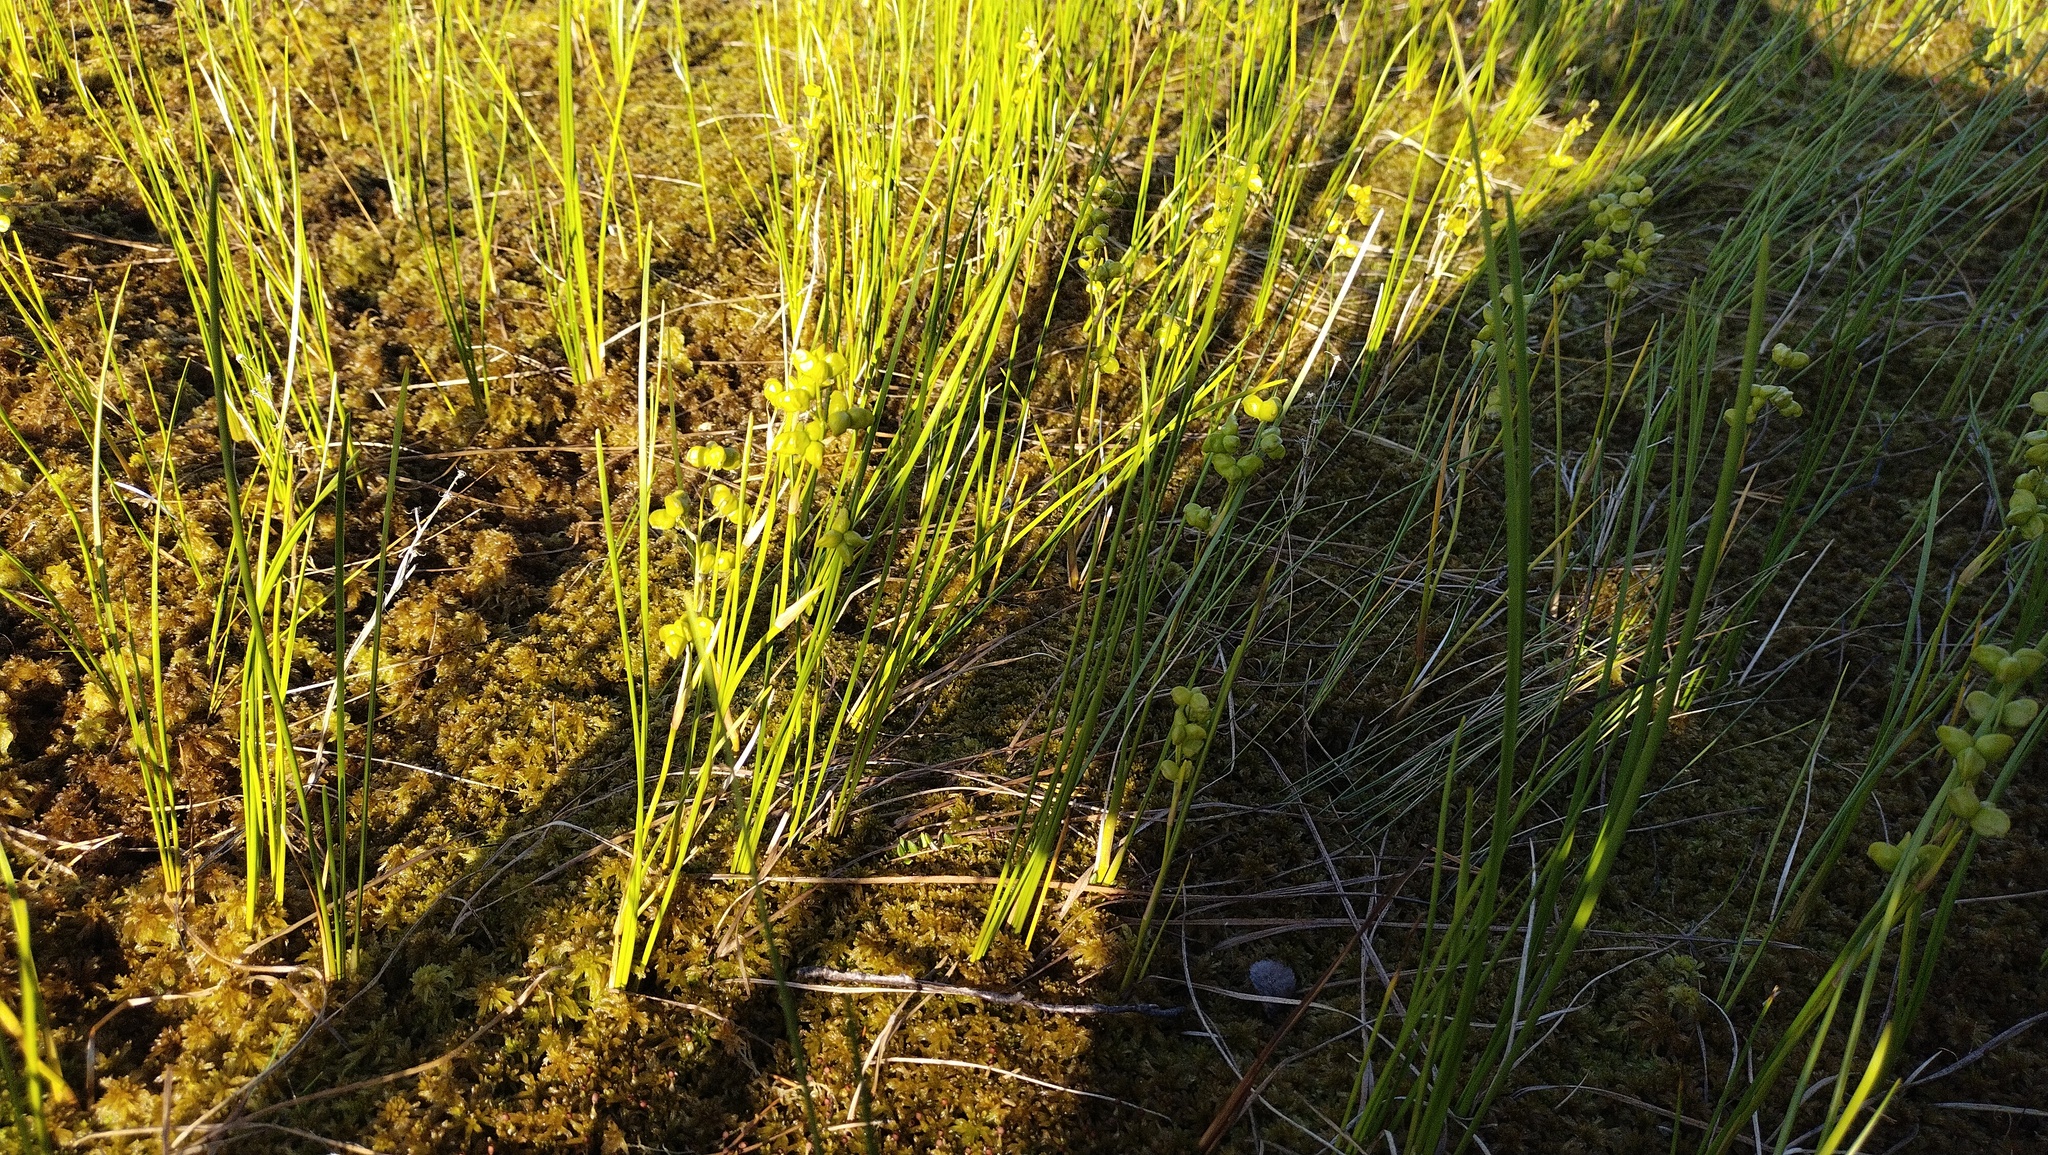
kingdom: Plantae
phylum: Tracheophyta
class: Liliopsida
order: Alismatales
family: Scheuchzeriaceae
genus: Scheuchzeria
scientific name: Scheuchzeria palustris
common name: Rannoch-rush
